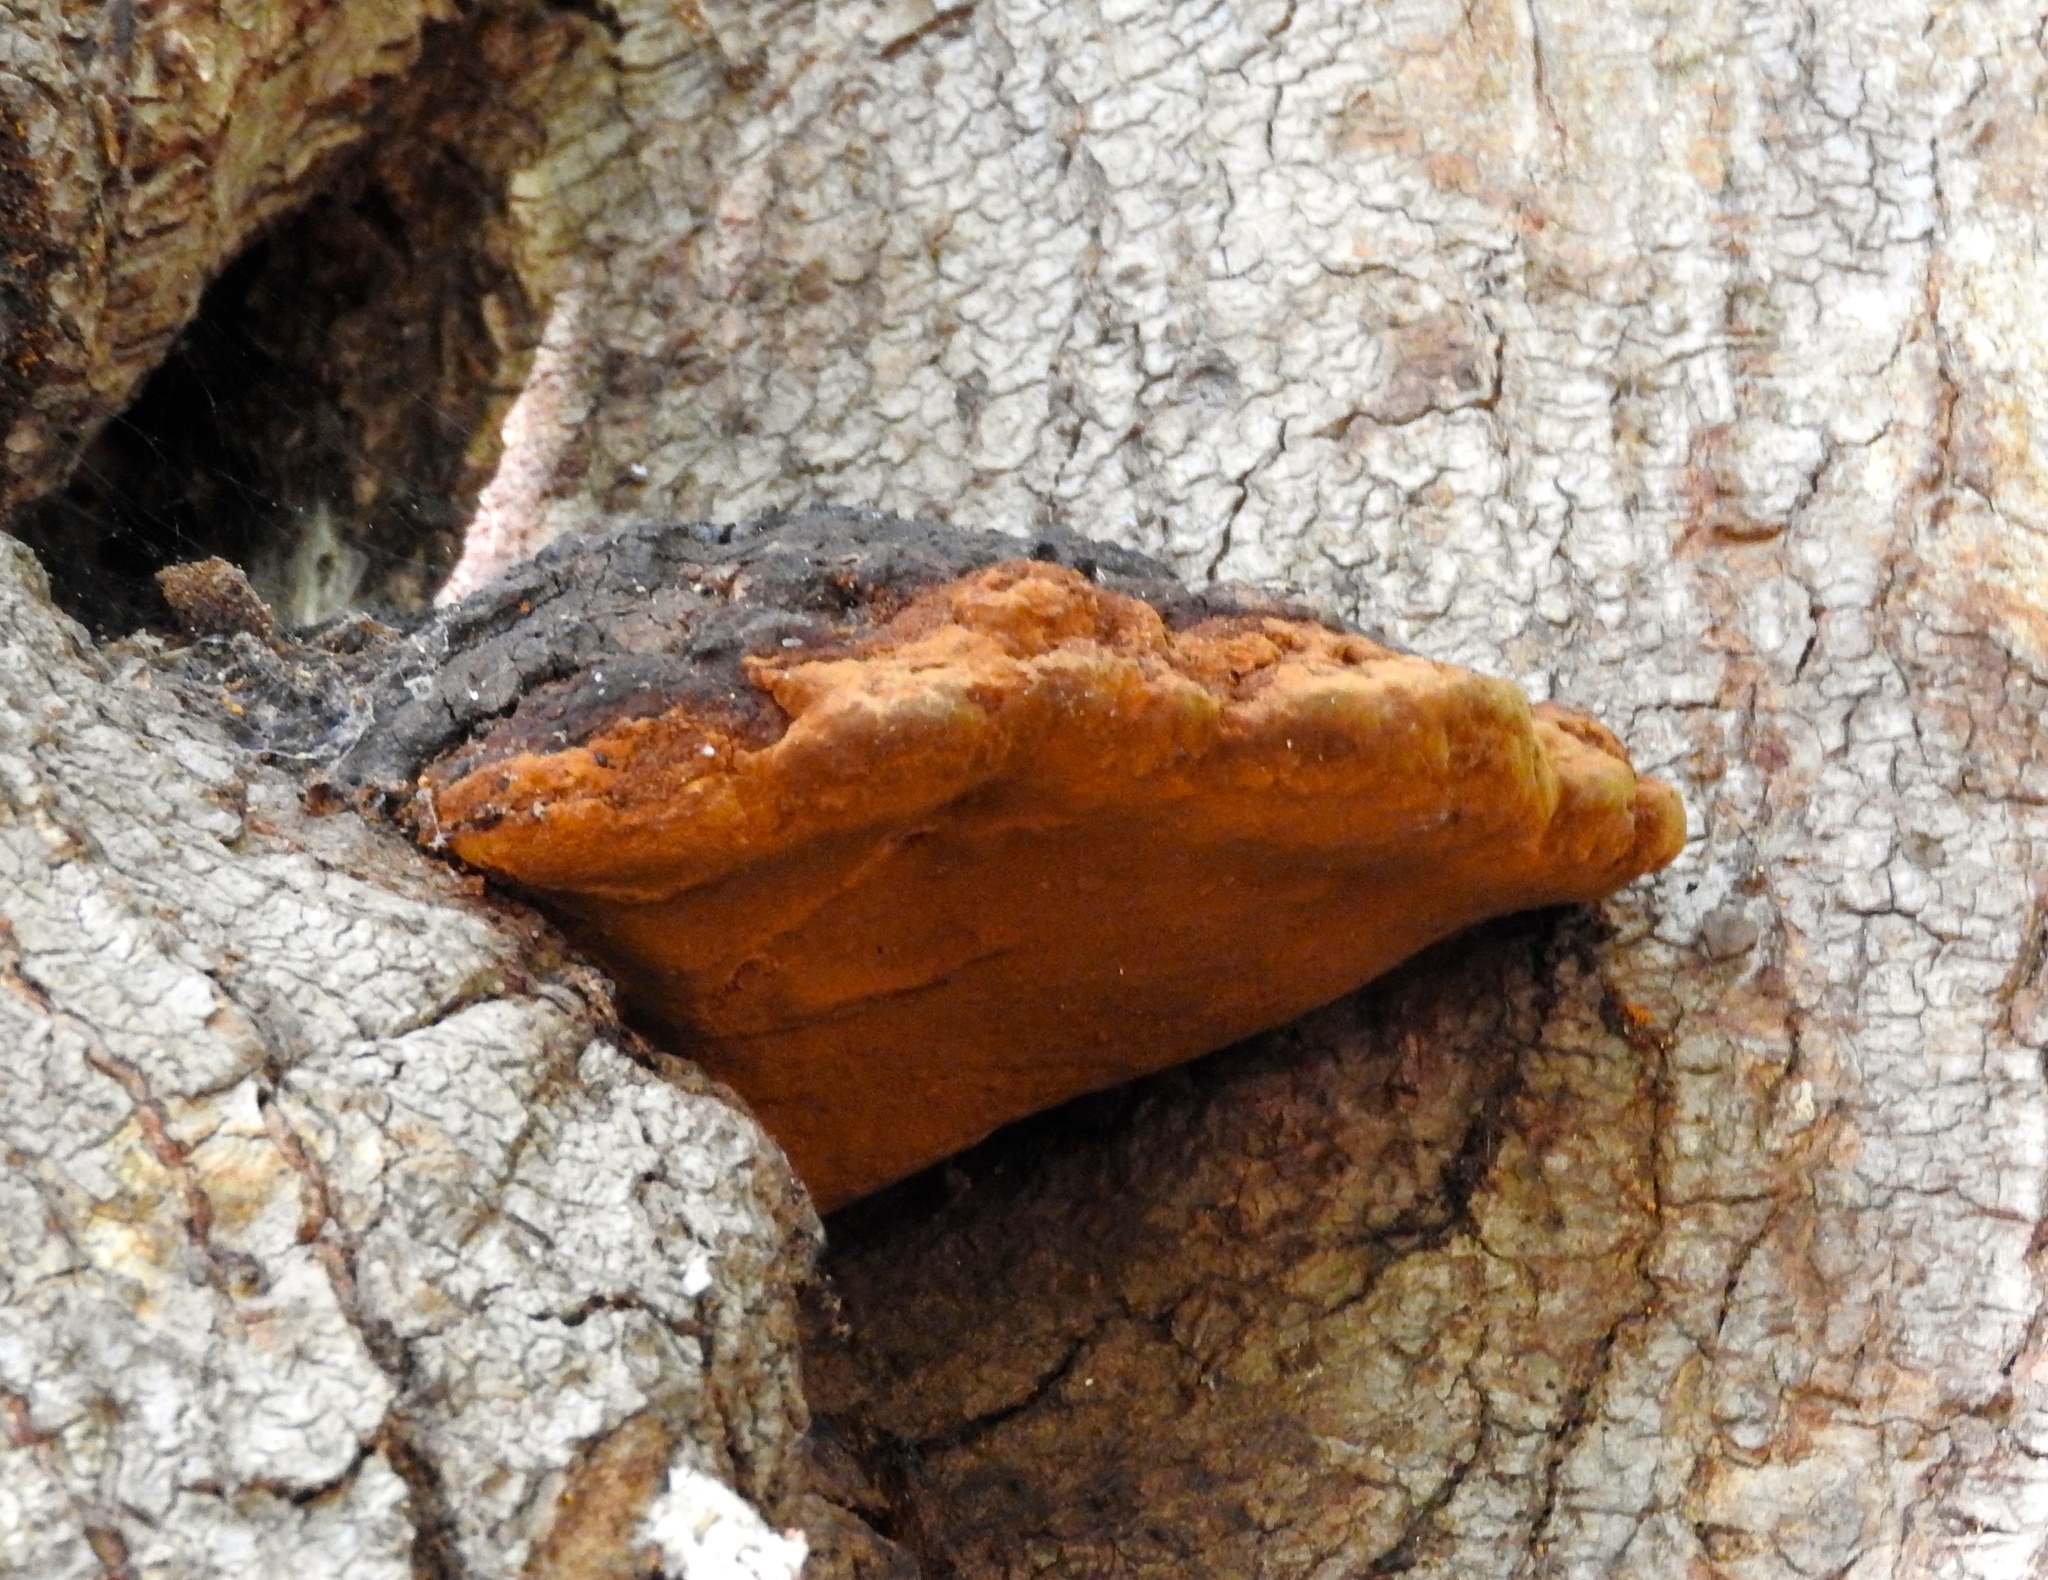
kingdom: Fungi
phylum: Basidiomycota
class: Agaricomycetes
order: Hymenochaetales
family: Hymenochaetaceae
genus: Phellinus
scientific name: Phellinus
